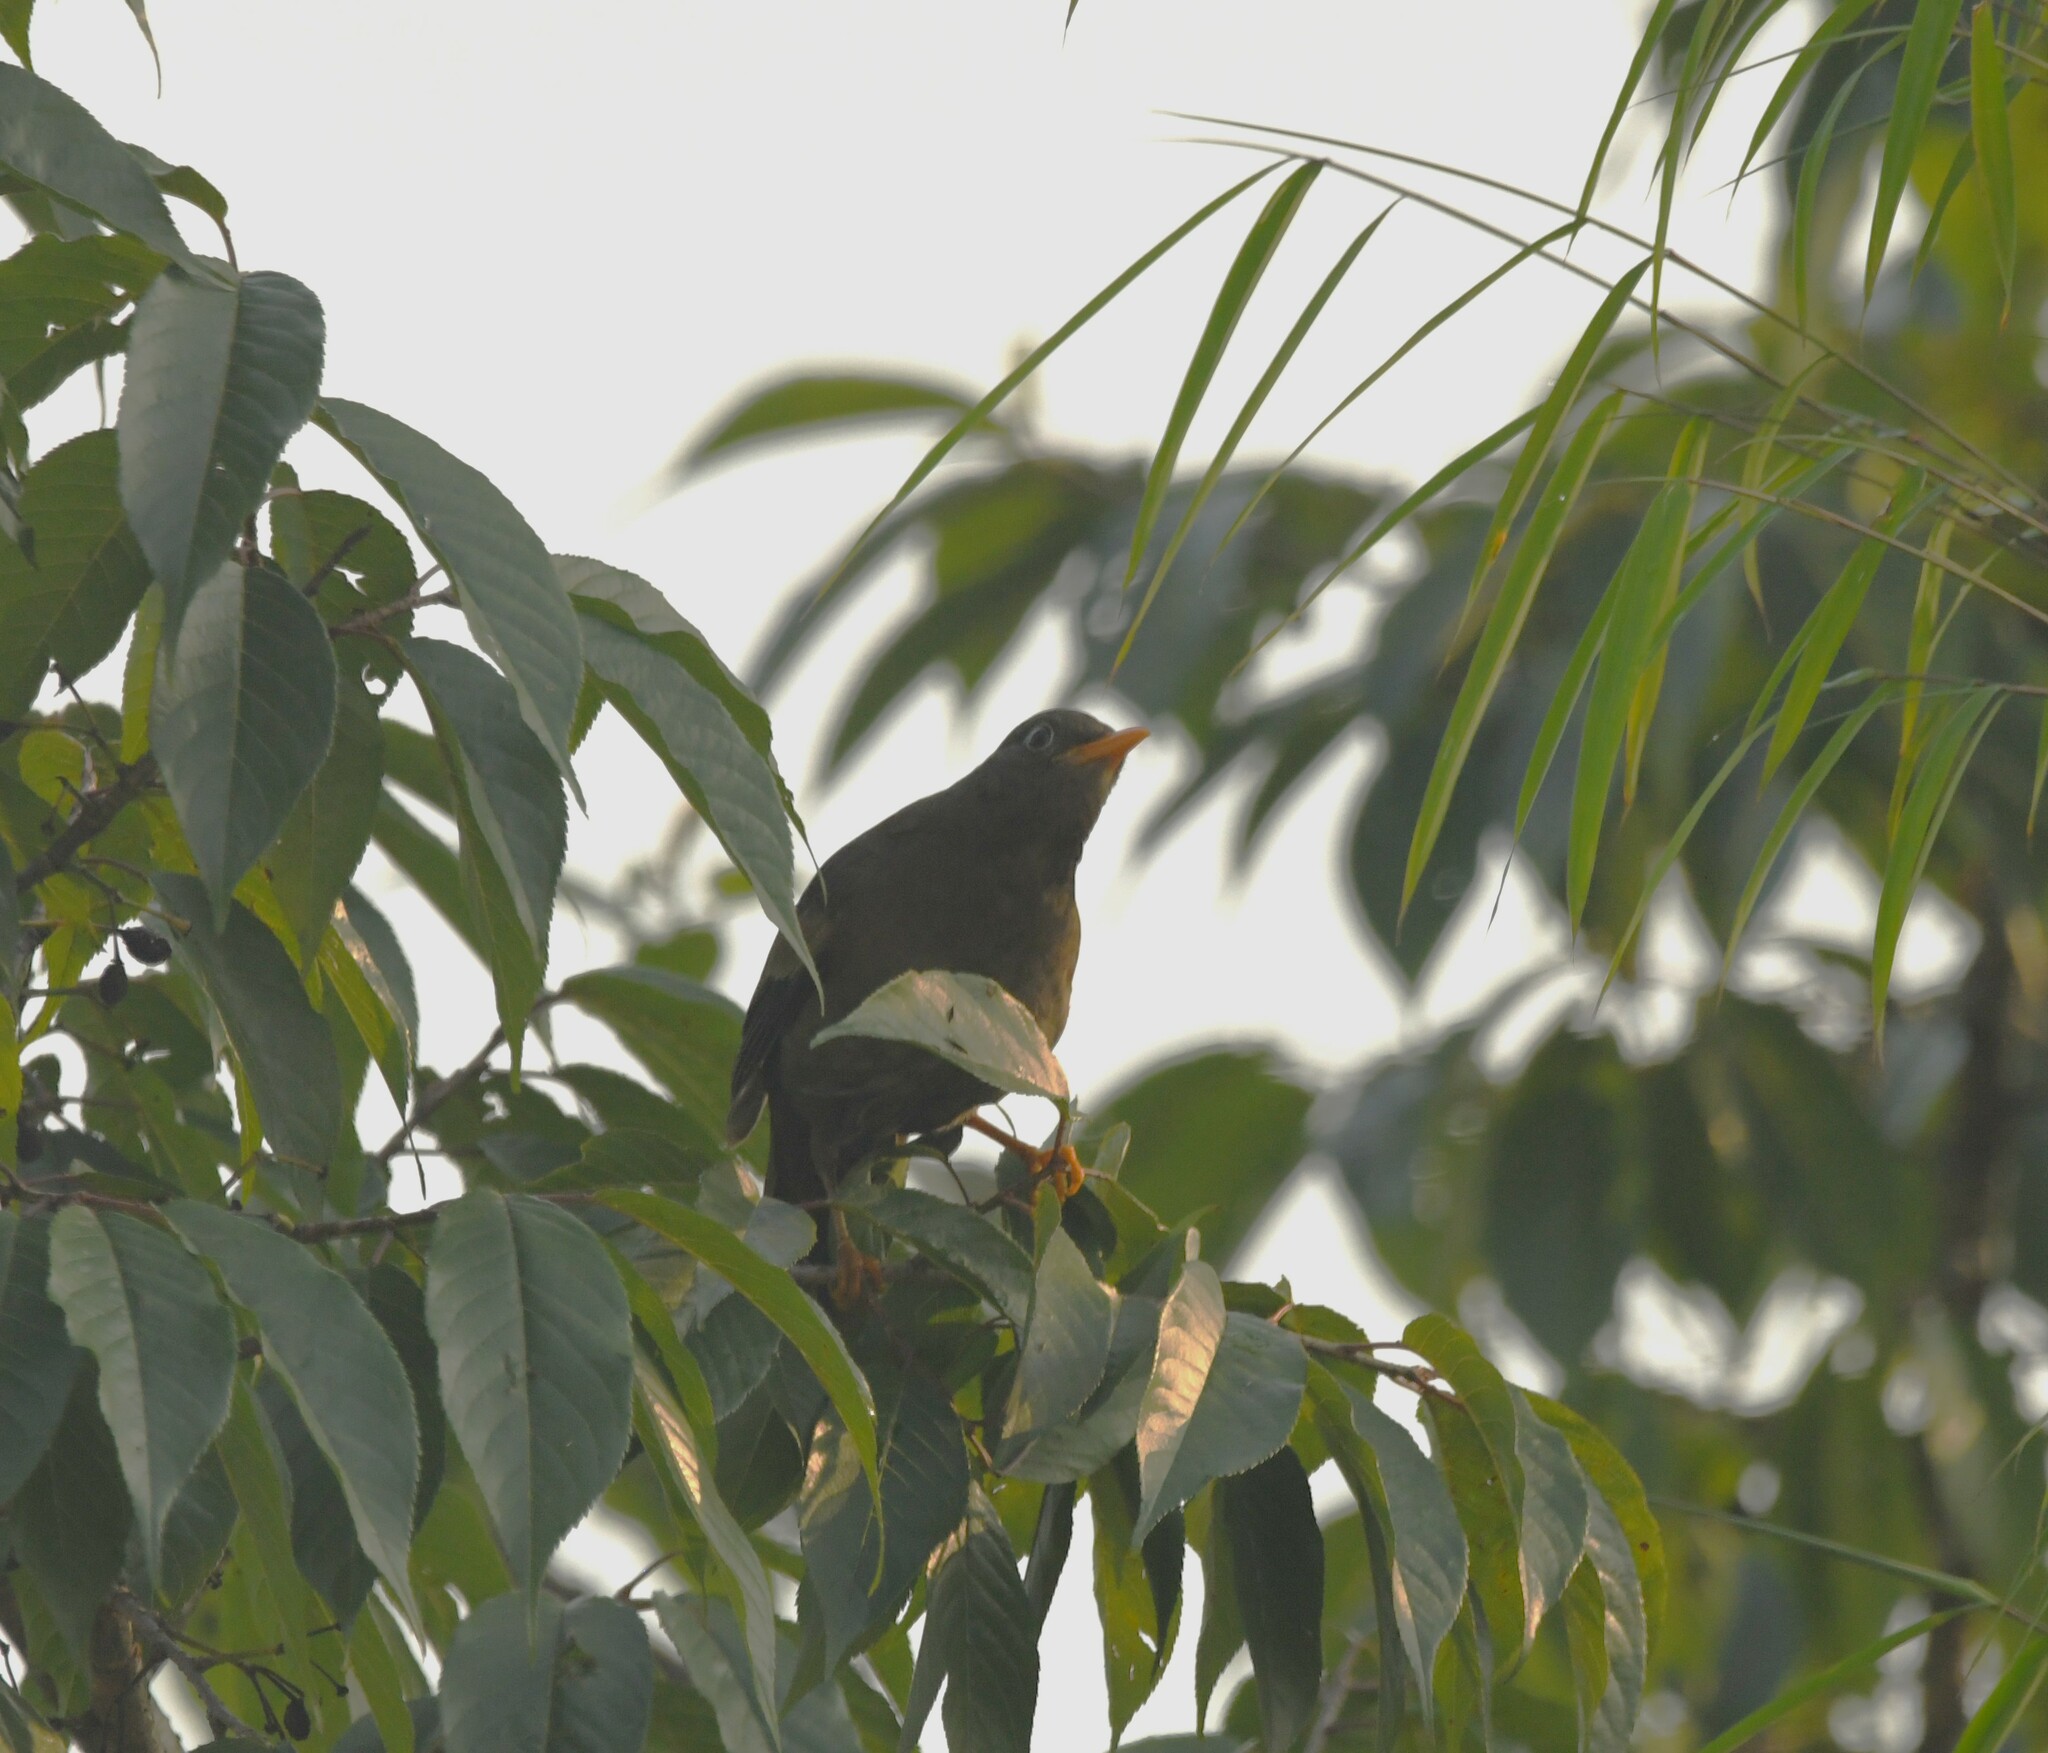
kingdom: Animalia
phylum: Chordata
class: Aves
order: Passeriformes
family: Turdidae
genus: Turdus
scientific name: Turdus boulboul
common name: Grey-winged blackbird
